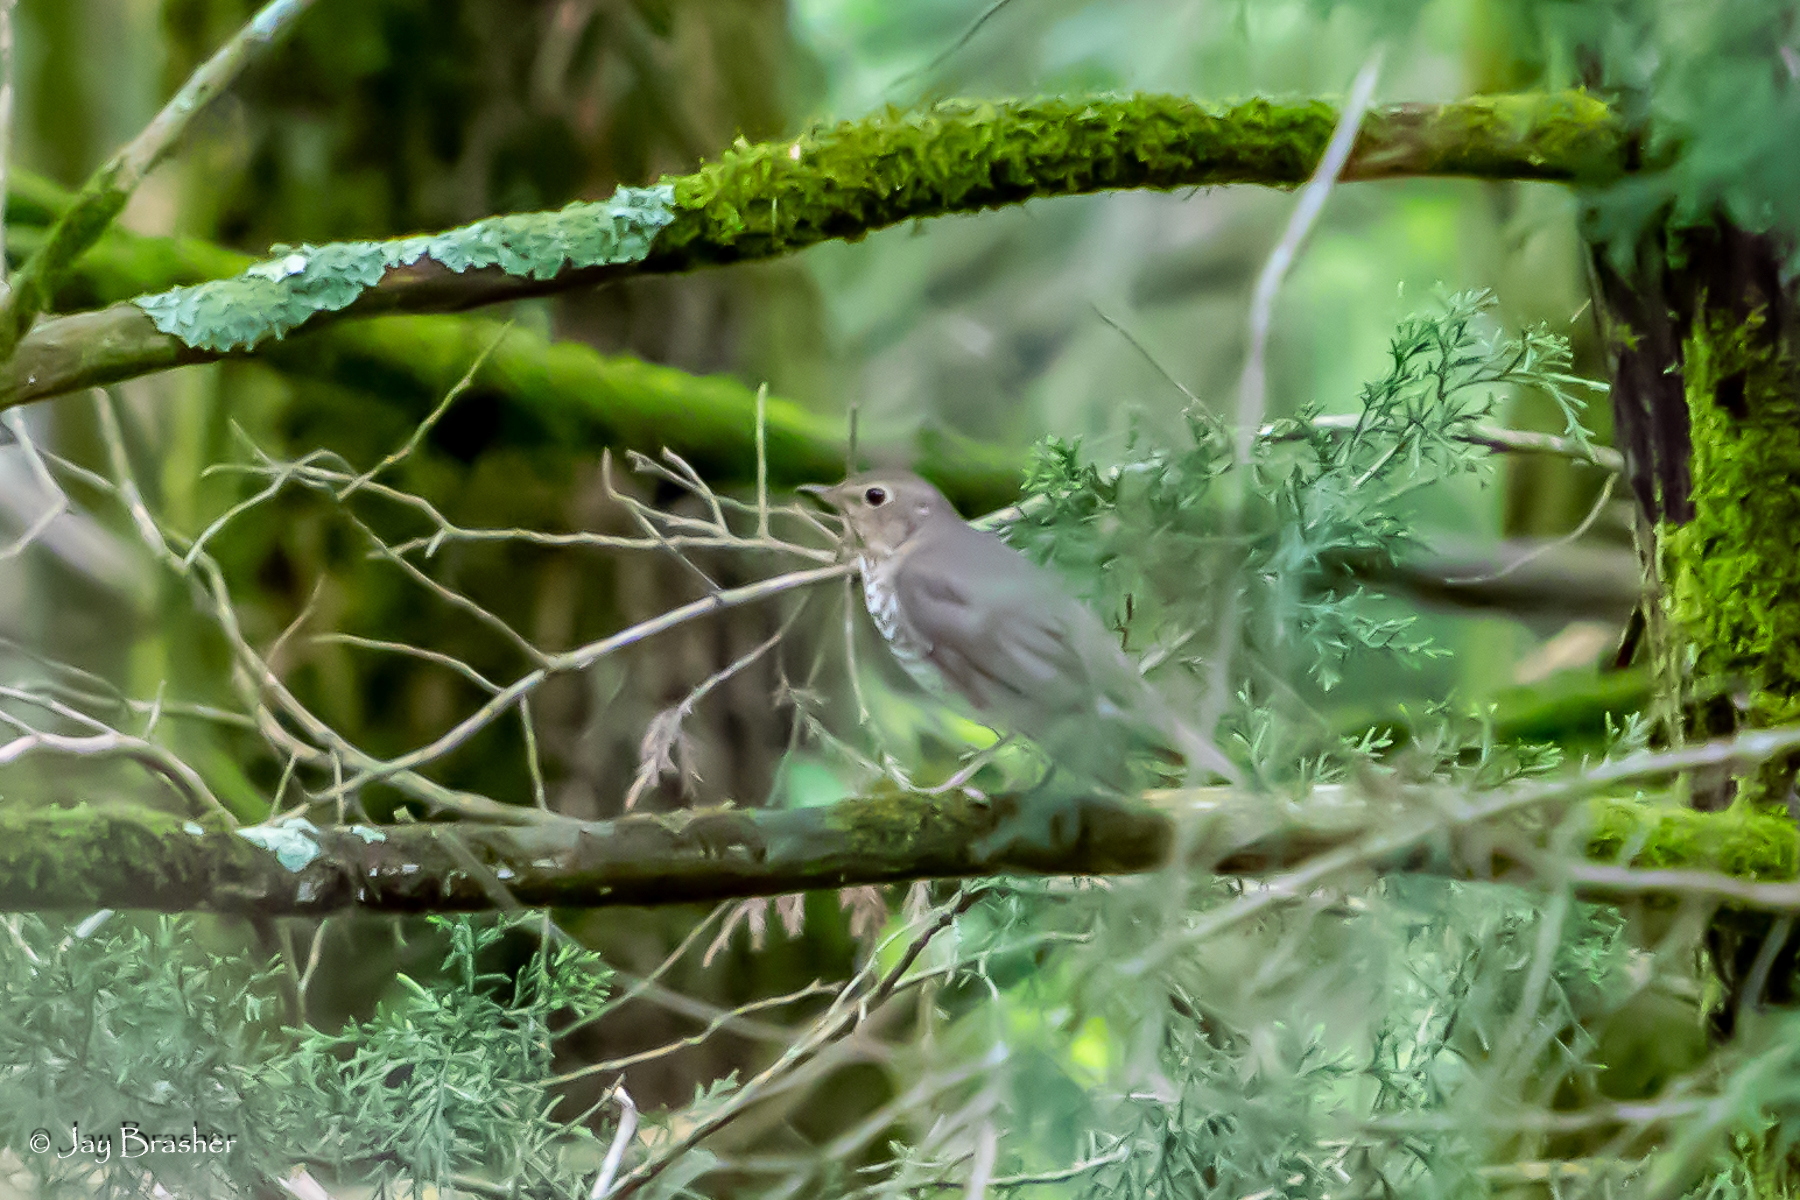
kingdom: Animalia
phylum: Chordata
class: Aves
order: Passeriformes
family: Turdidae
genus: Catharus
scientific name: Catharus ustulatus
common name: Swainson's thrush
